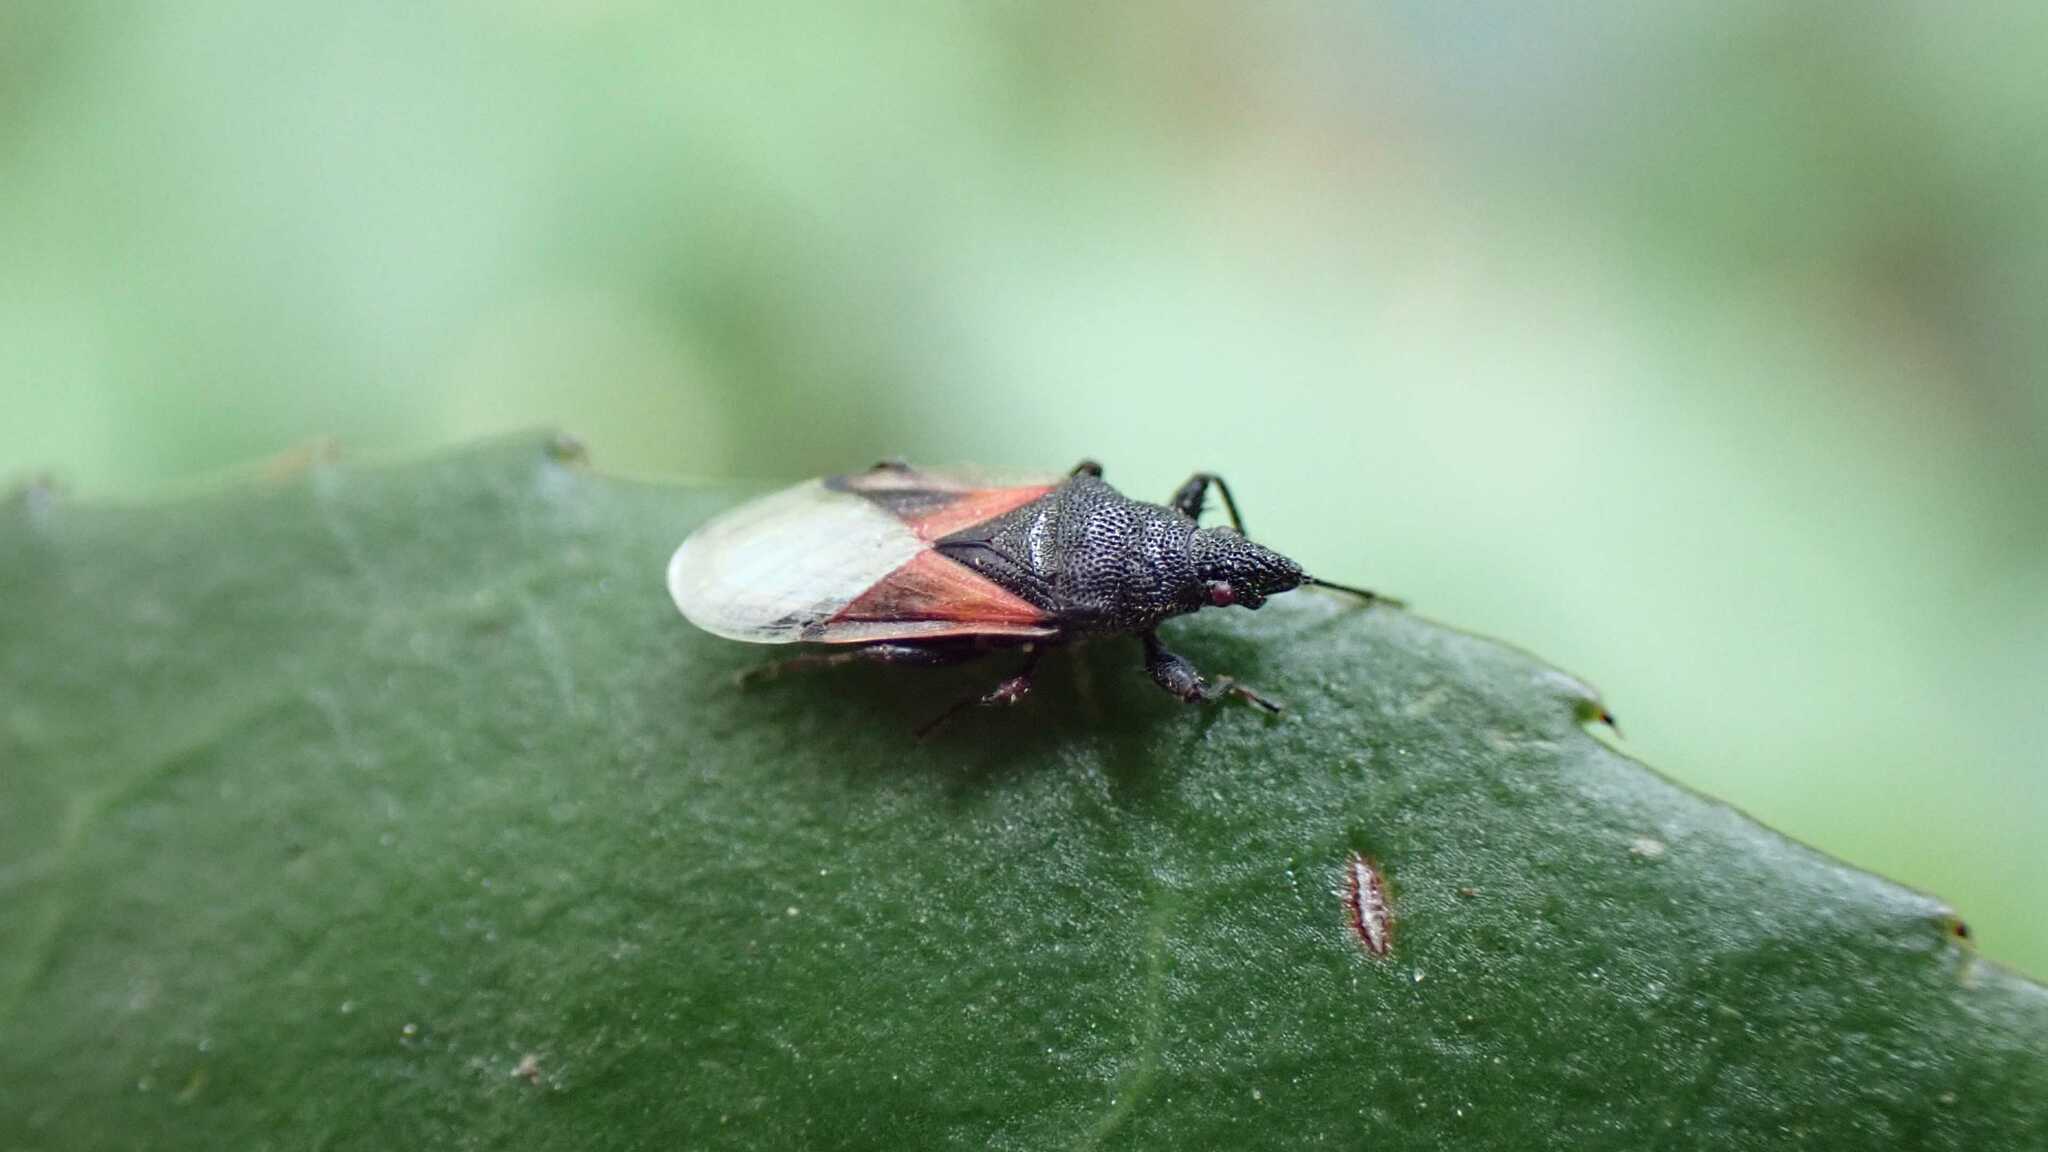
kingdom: Animalia
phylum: Arthropoda
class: Insecta
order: Hemiptera
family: Oxycarenidae
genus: Oxycarenus
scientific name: Oxycarenus lavaterae
